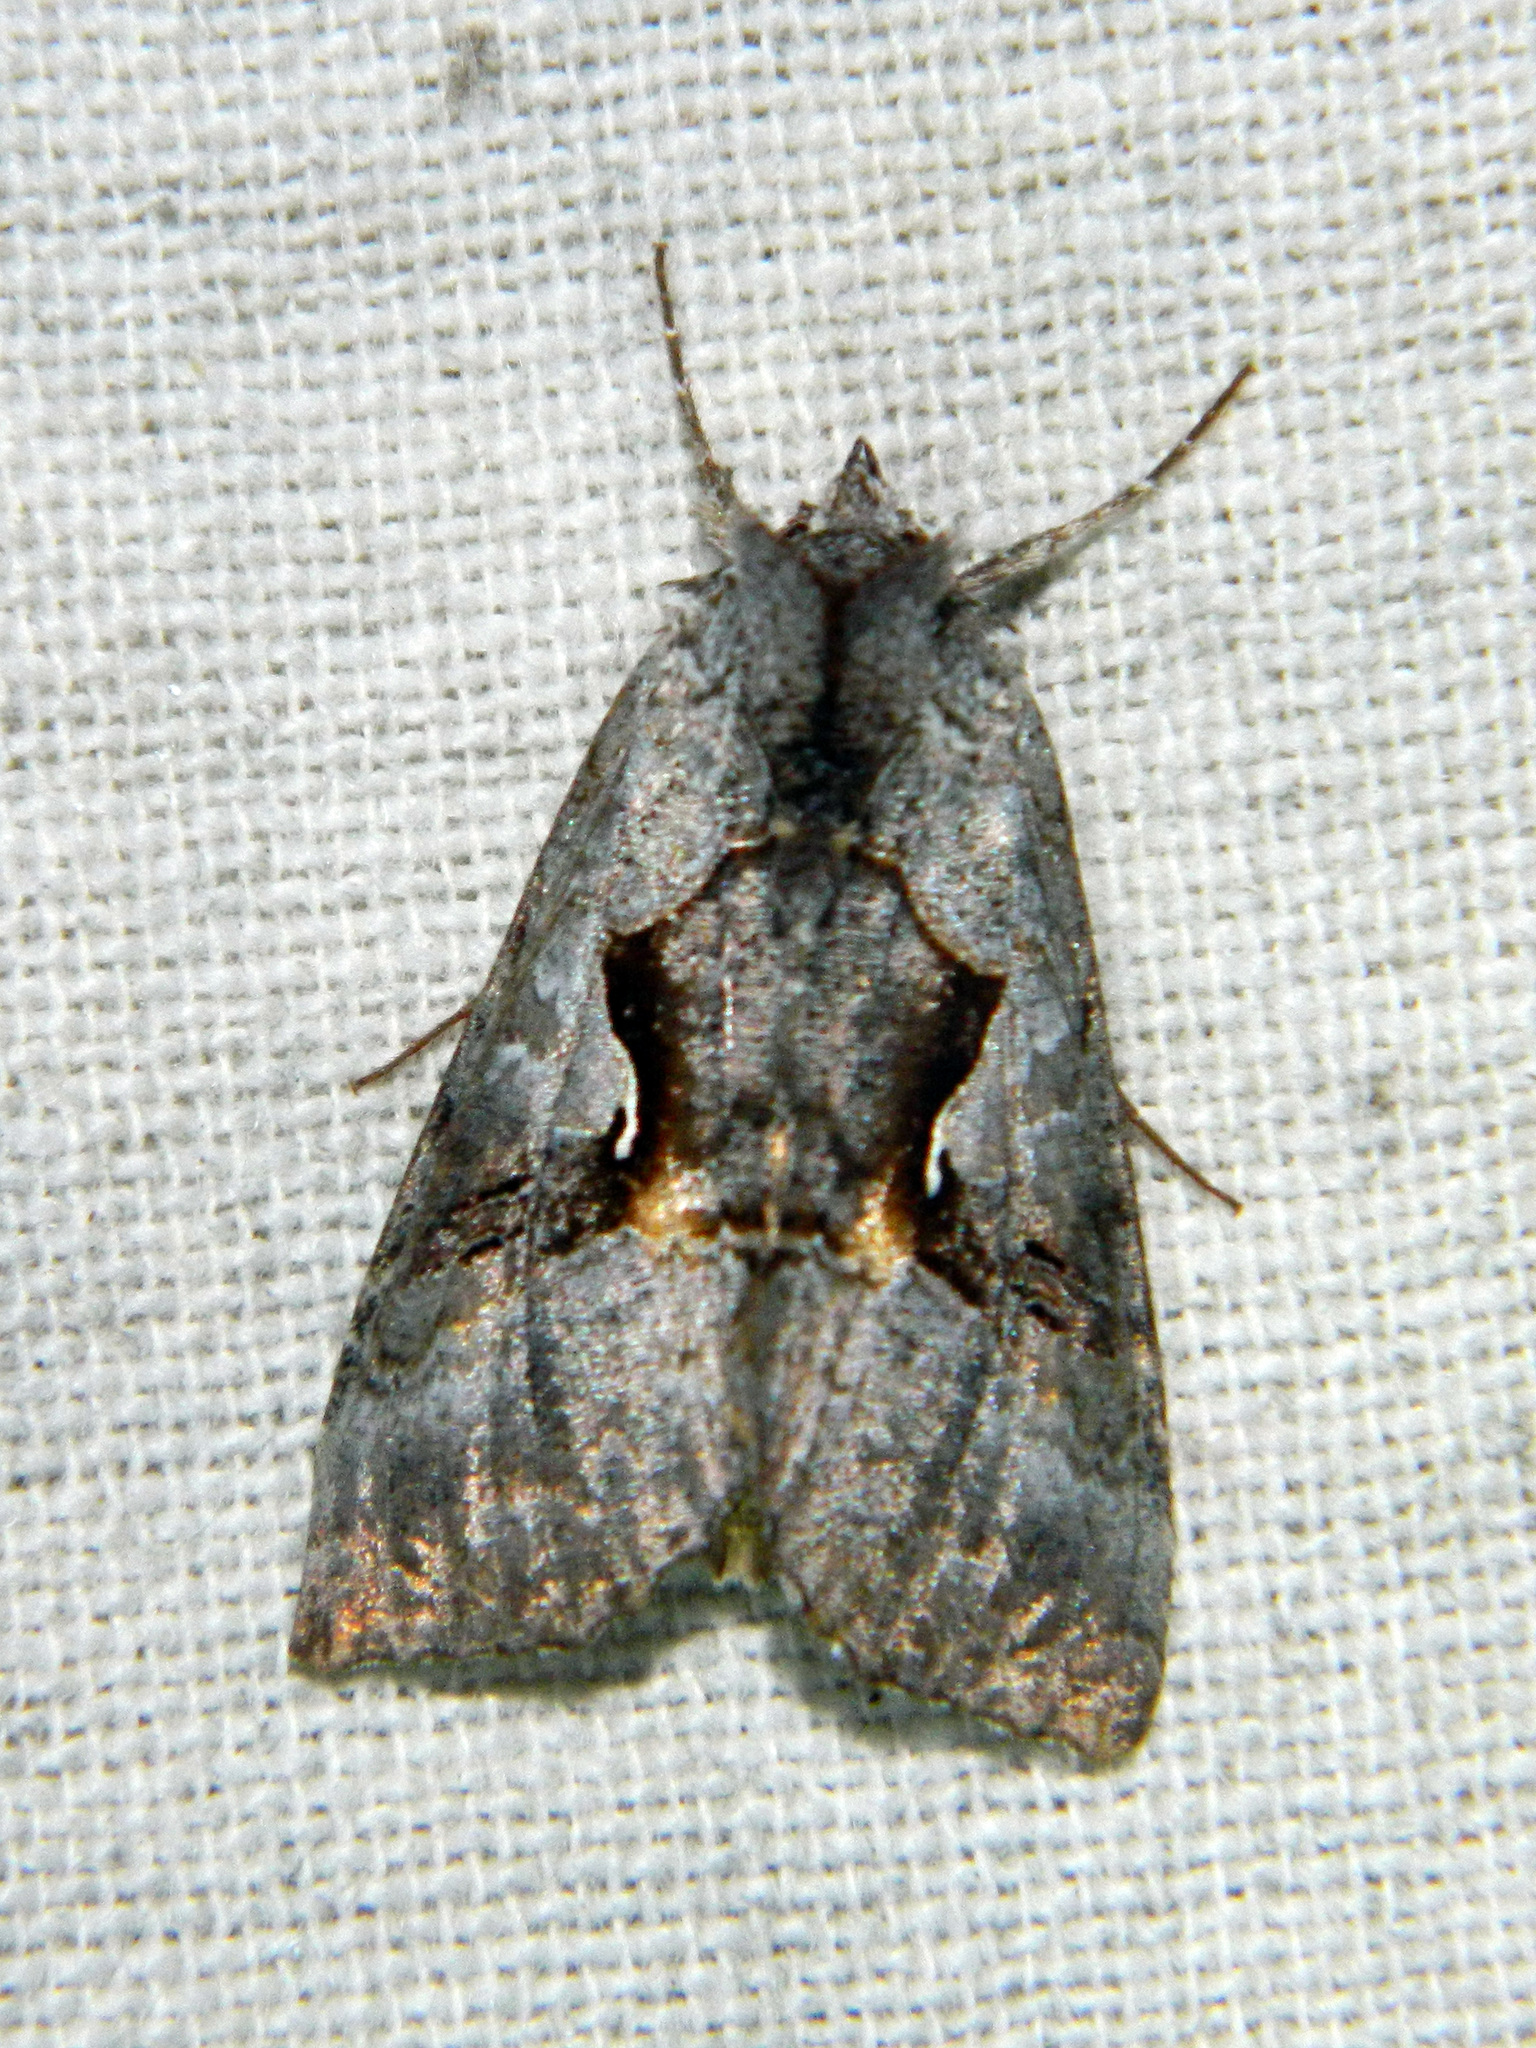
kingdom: Animalia
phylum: Arthropoda
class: Insecta
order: Lepidoptera
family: Noctuidae
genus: Syngrapha
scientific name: Syngrapha epigaea
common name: Epigaea looper moth
